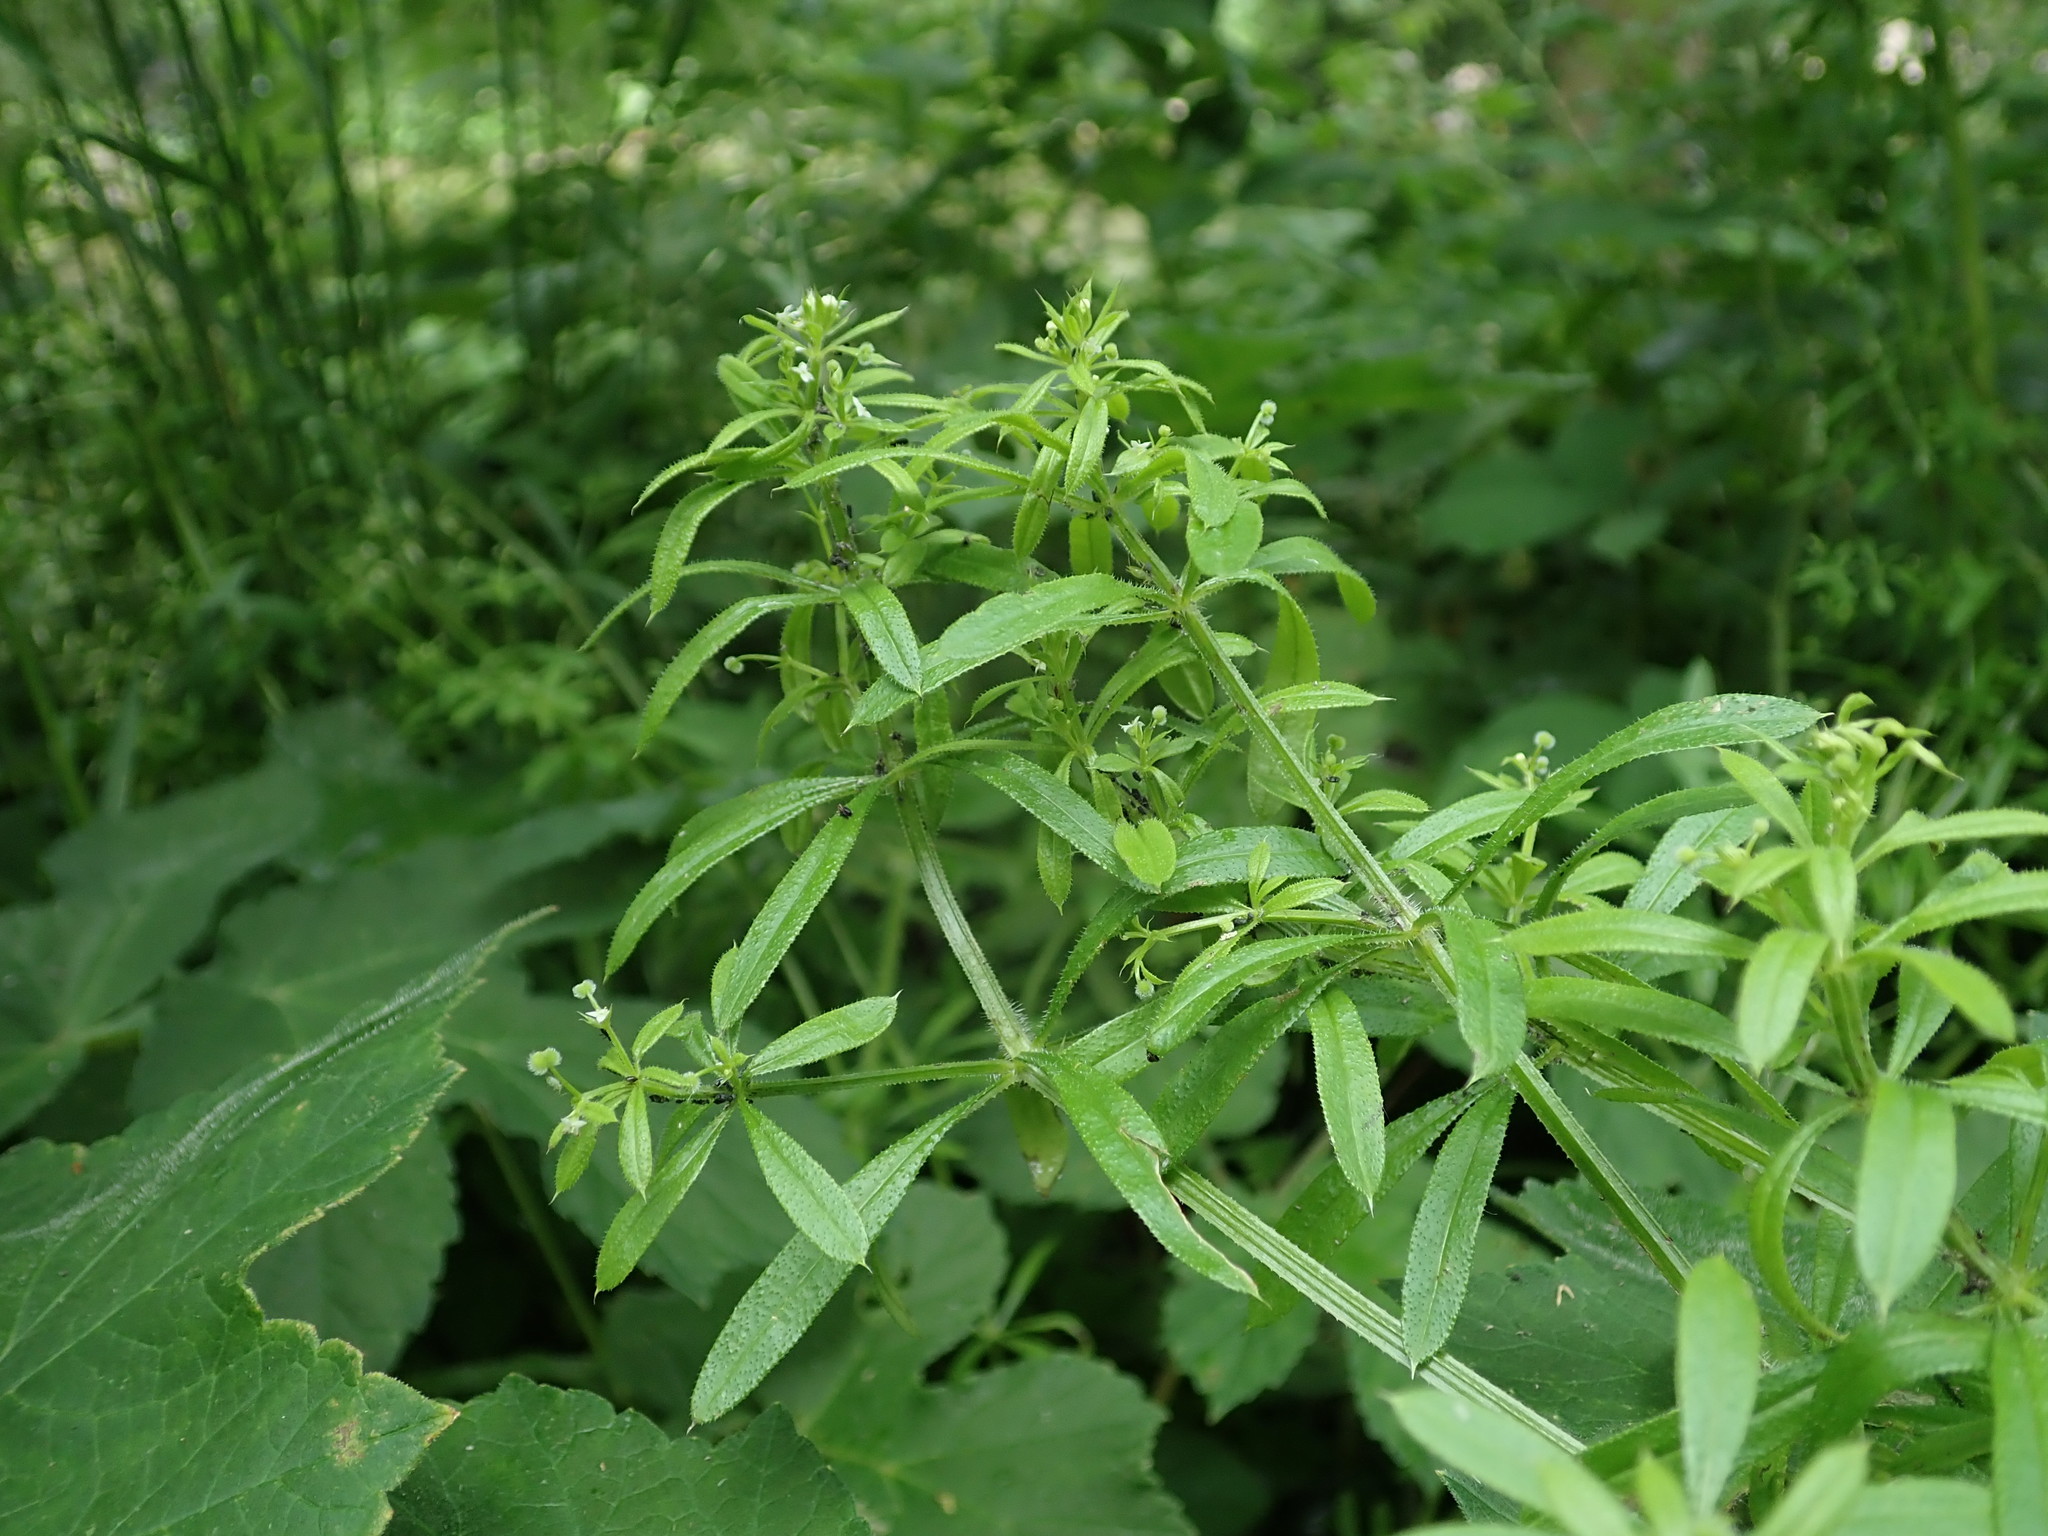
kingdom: Plantae
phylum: Tracheophyta
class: Magnoliopsida
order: Gentianales
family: Rubiaceae
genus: Galium
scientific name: Galium aparine
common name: Cleavers
